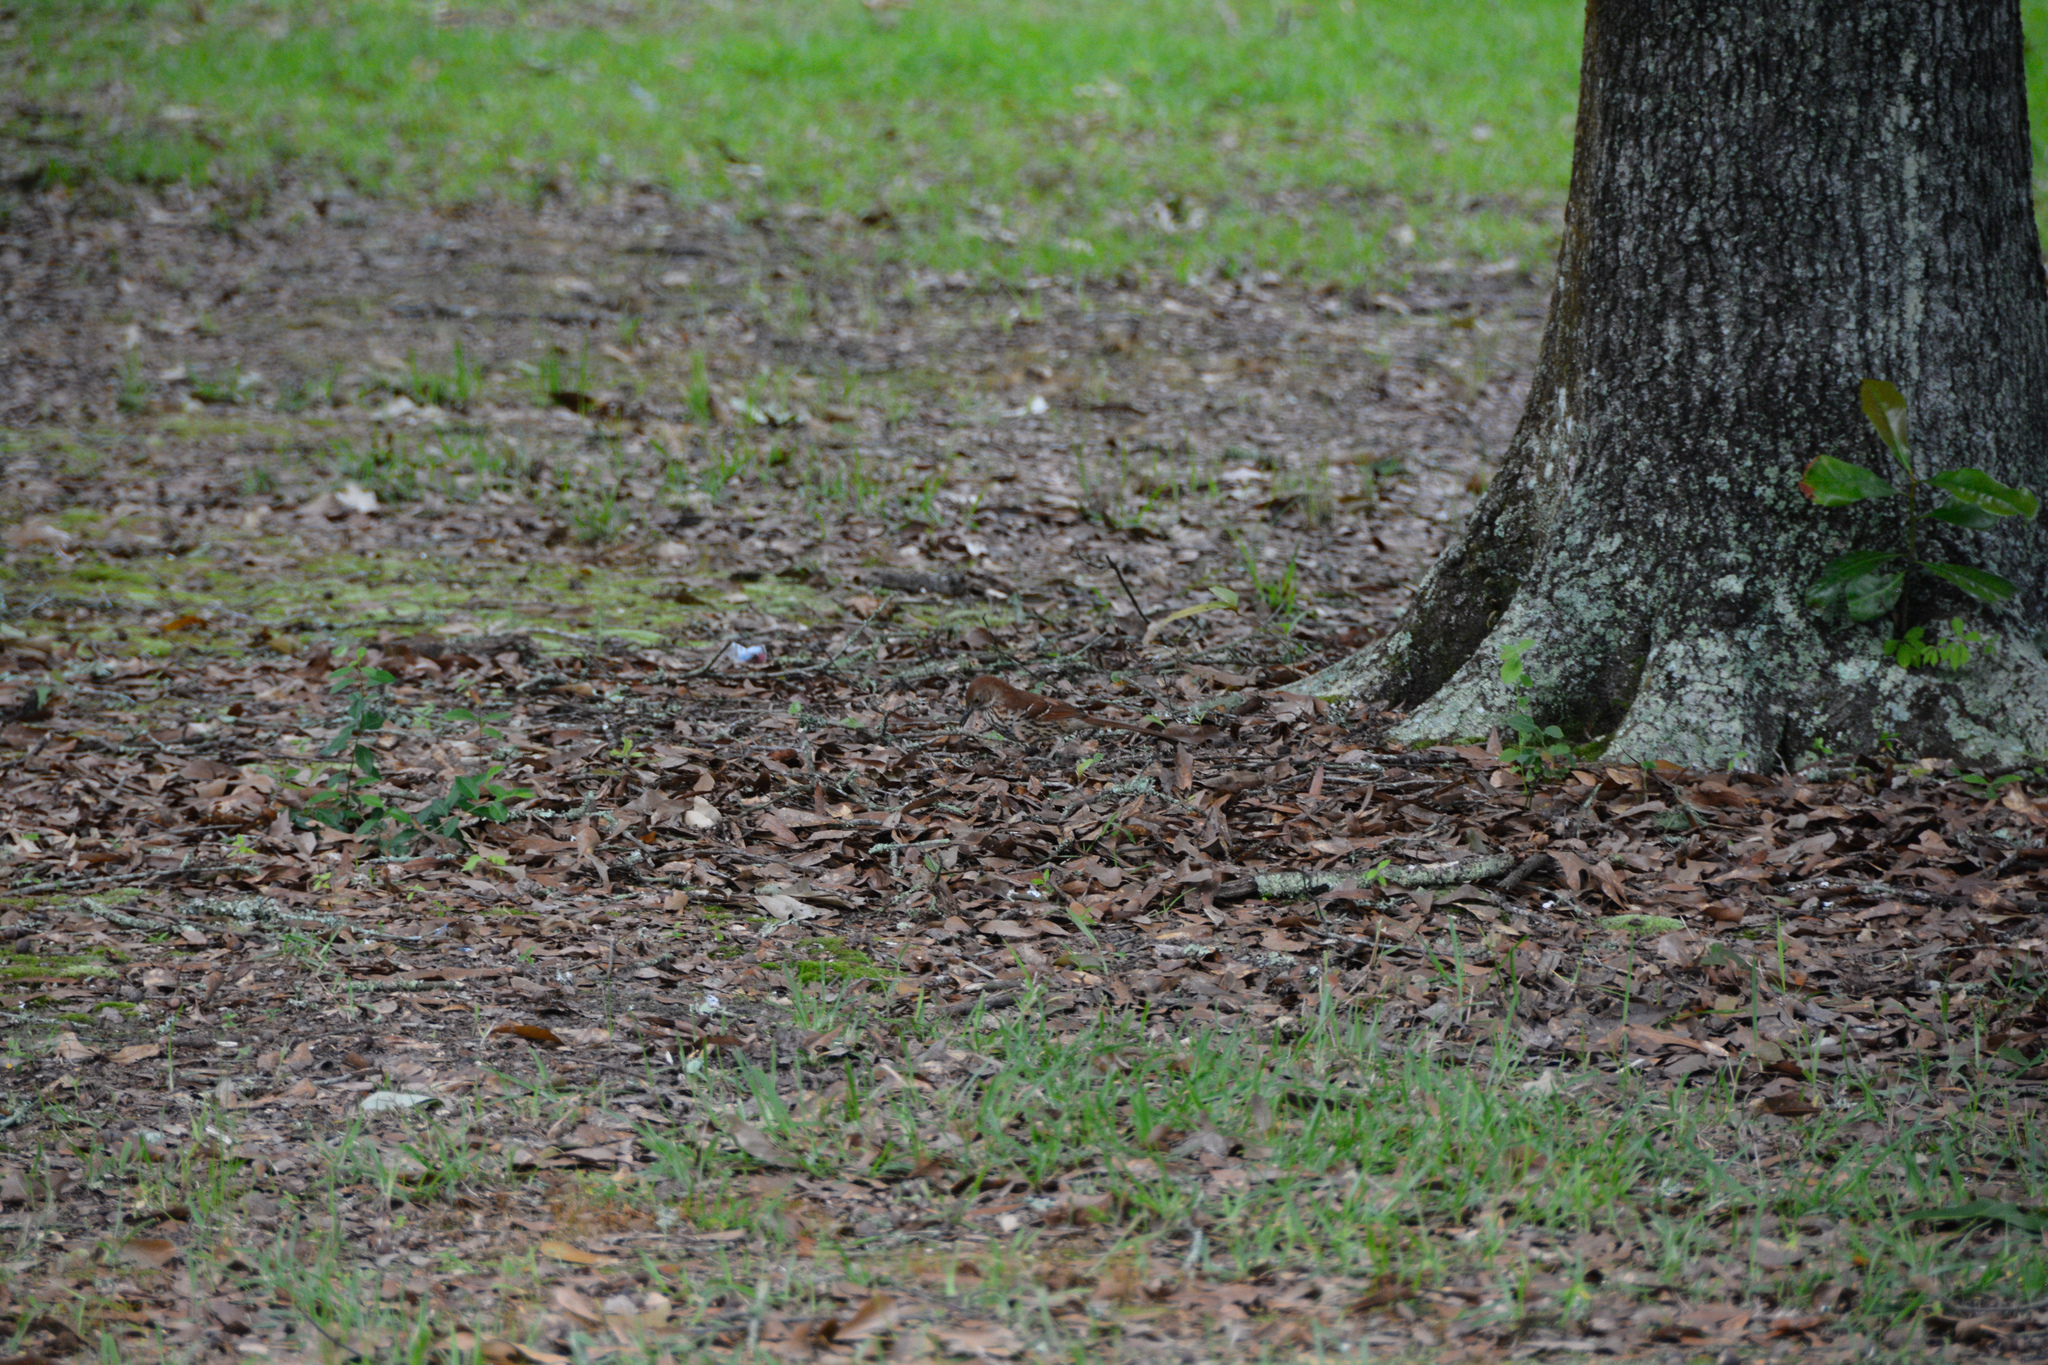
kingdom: Animalia
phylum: Chordata
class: Aves
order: Passeriformes
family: Mimidae
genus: Toxostoma
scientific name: Toxostoma rufum
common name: Brown thrasher
